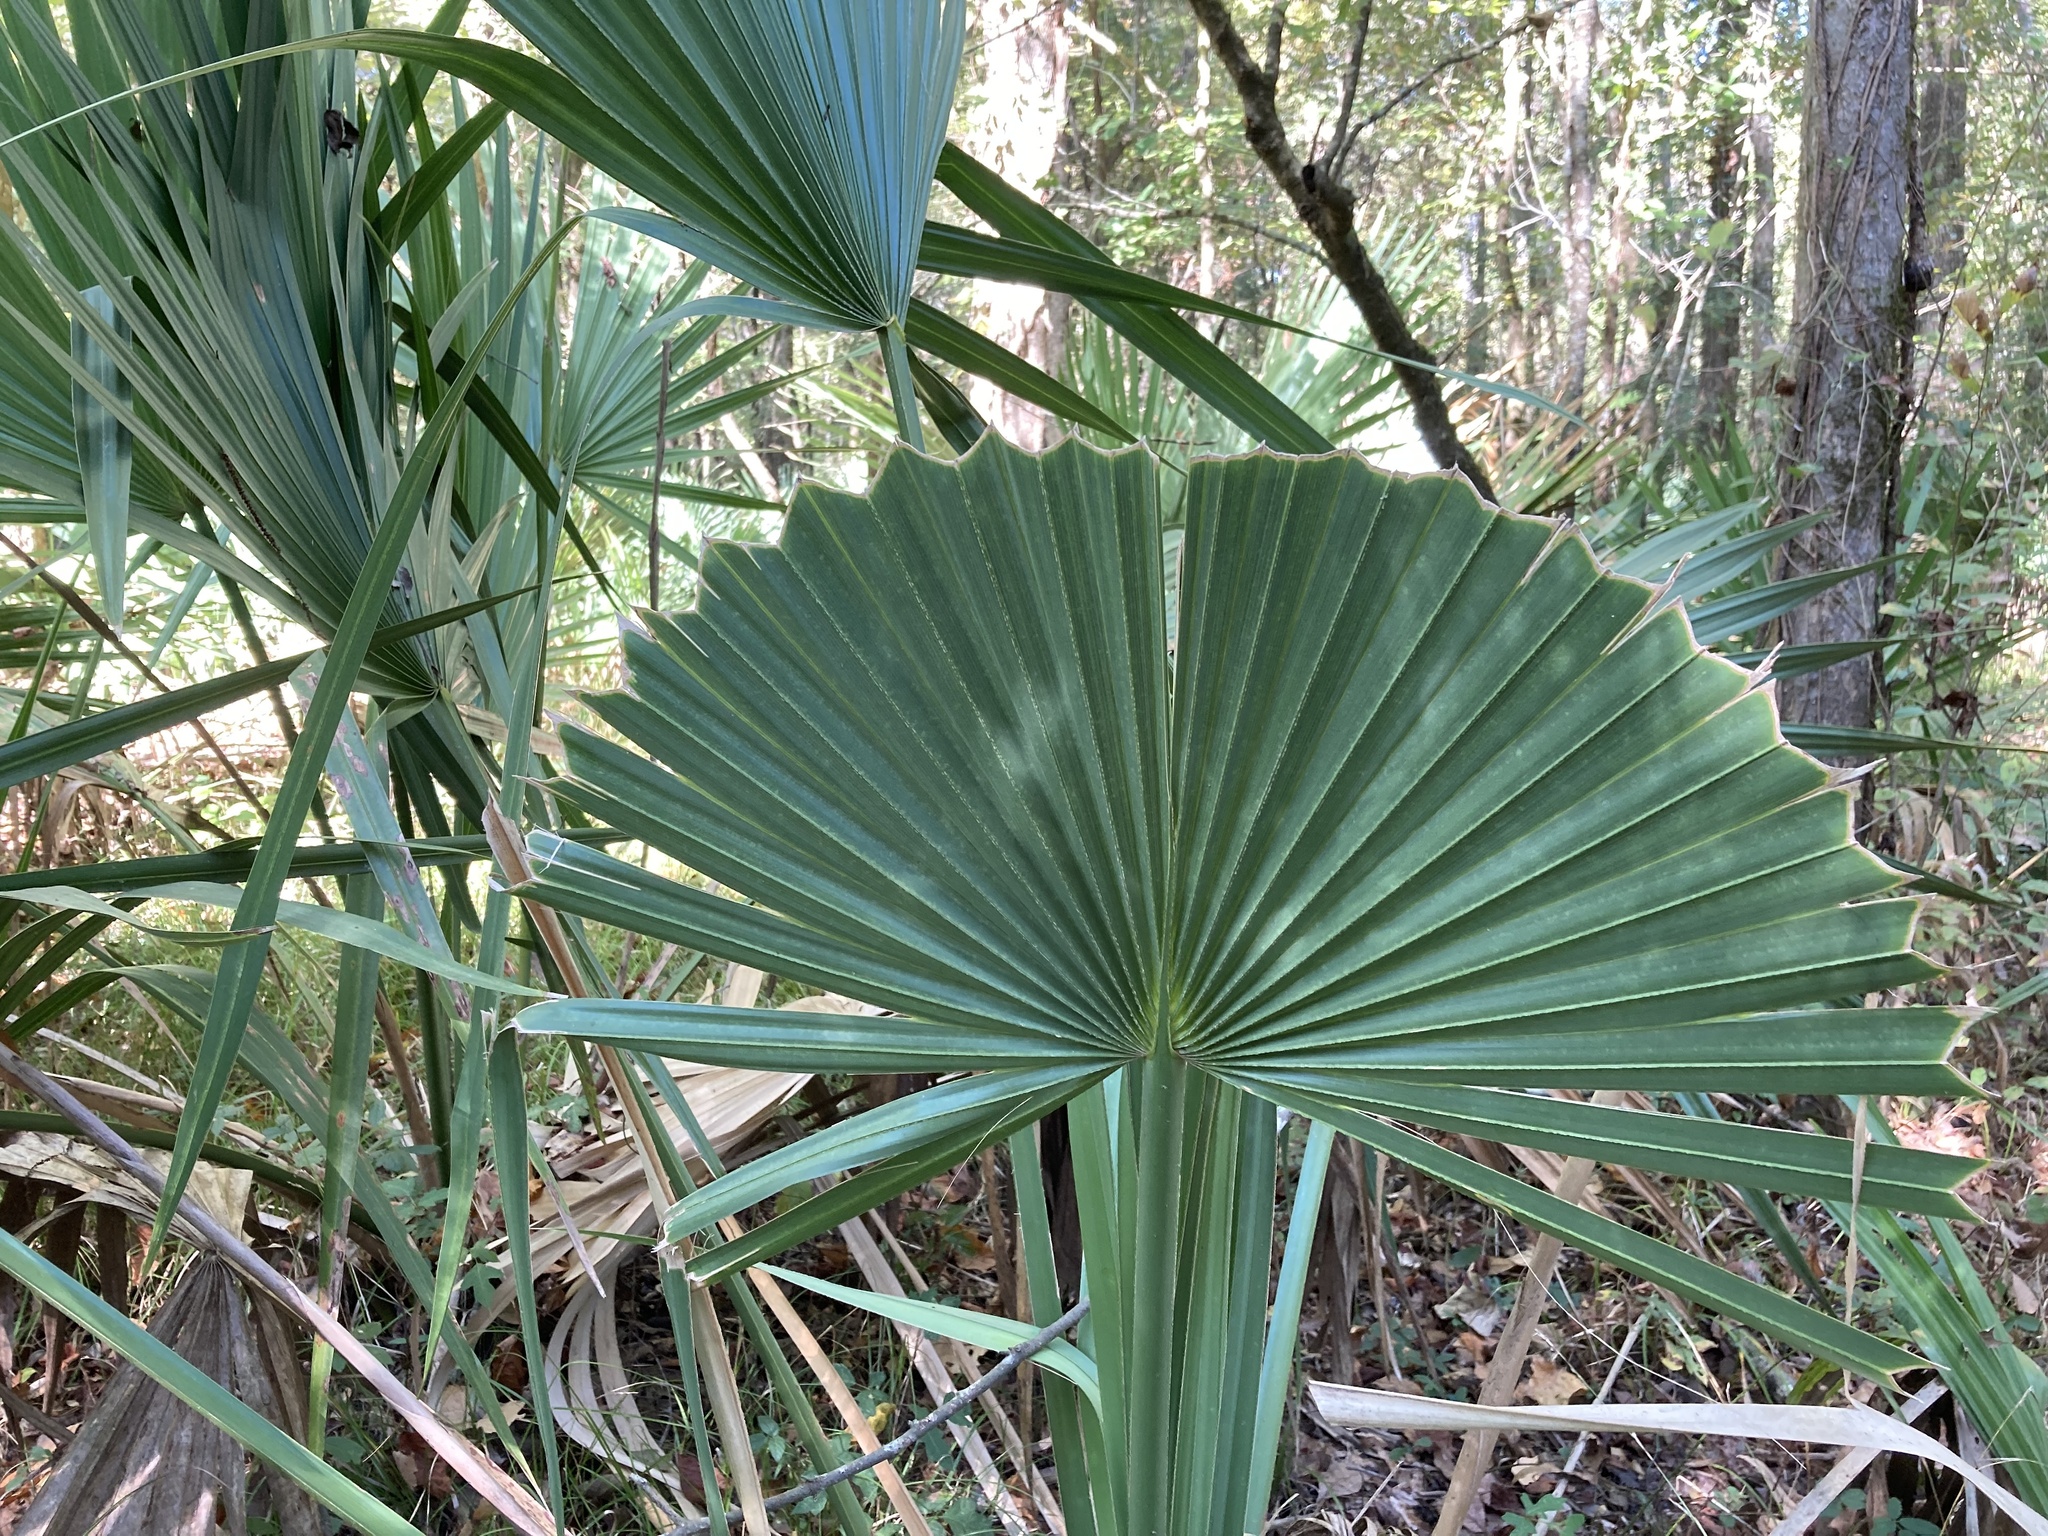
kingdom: Plantae
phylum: Tracheophyta
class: Liliopsida
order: Arecales
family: Arecaceae
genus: Sabal
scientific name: Sabal minor
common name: Dwarf palmetto
